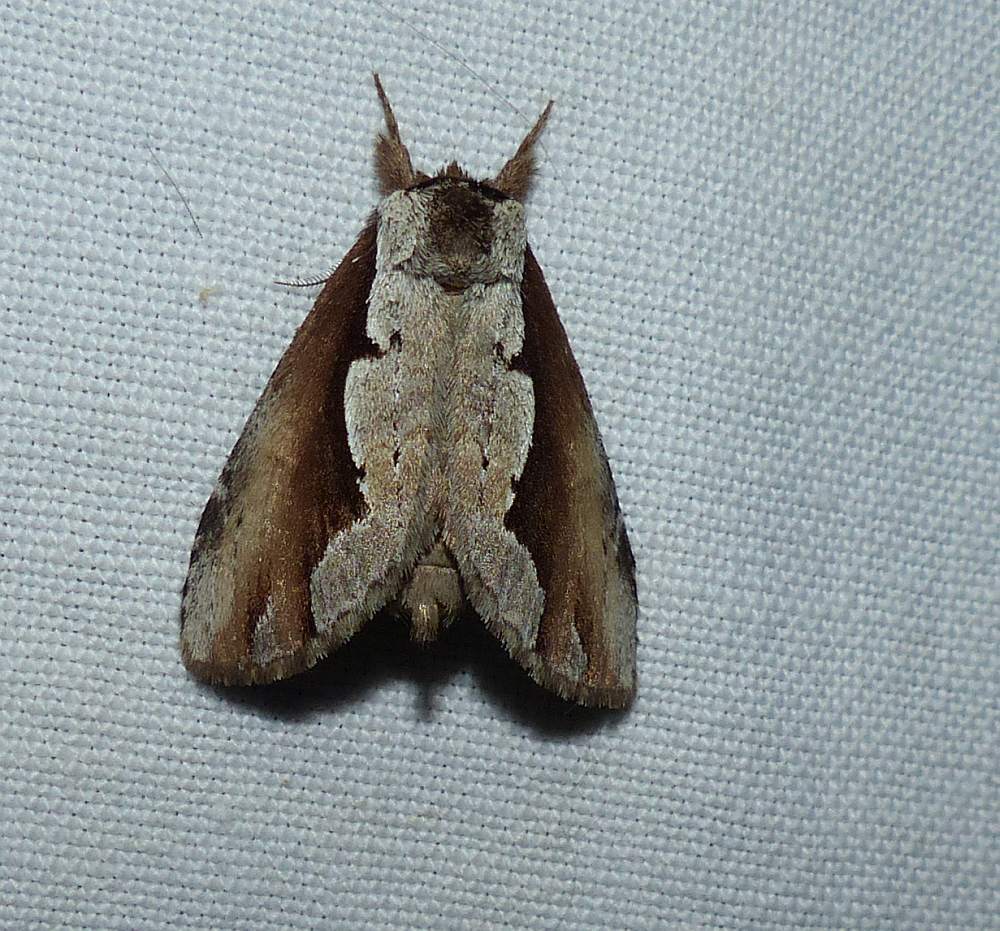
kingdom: Animalia
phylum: Arthropoda
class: Insecta
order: Lepidoptera
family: Notodontidae
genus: Nerice
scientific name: Nerice bidentata
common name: Double-toothed prominent
